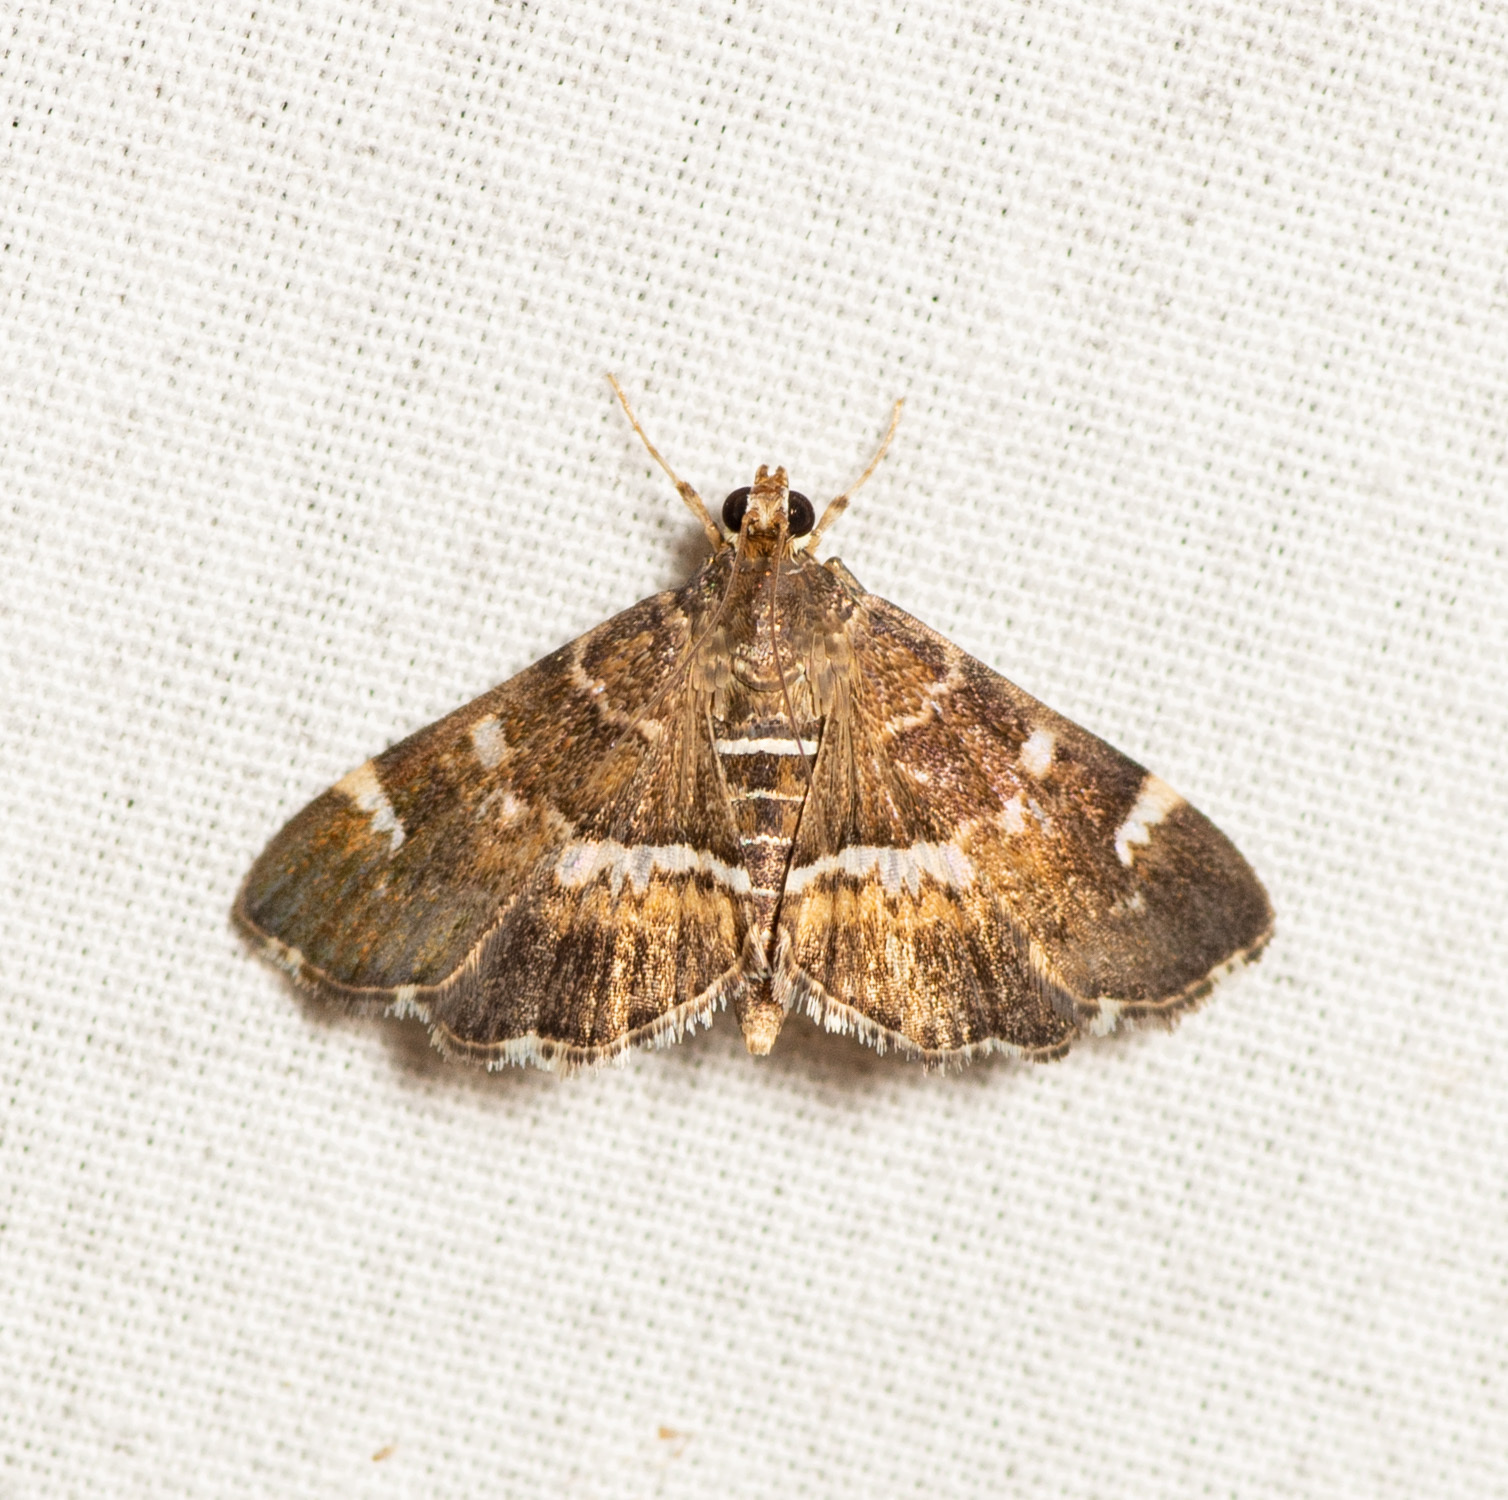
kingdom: Animalia
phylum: Arthropoda
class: Insecta
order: Lepidoptera
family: Crambidae
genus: Hymenia
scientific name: Hymenia perspectalis
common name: Spotted beet webworm
